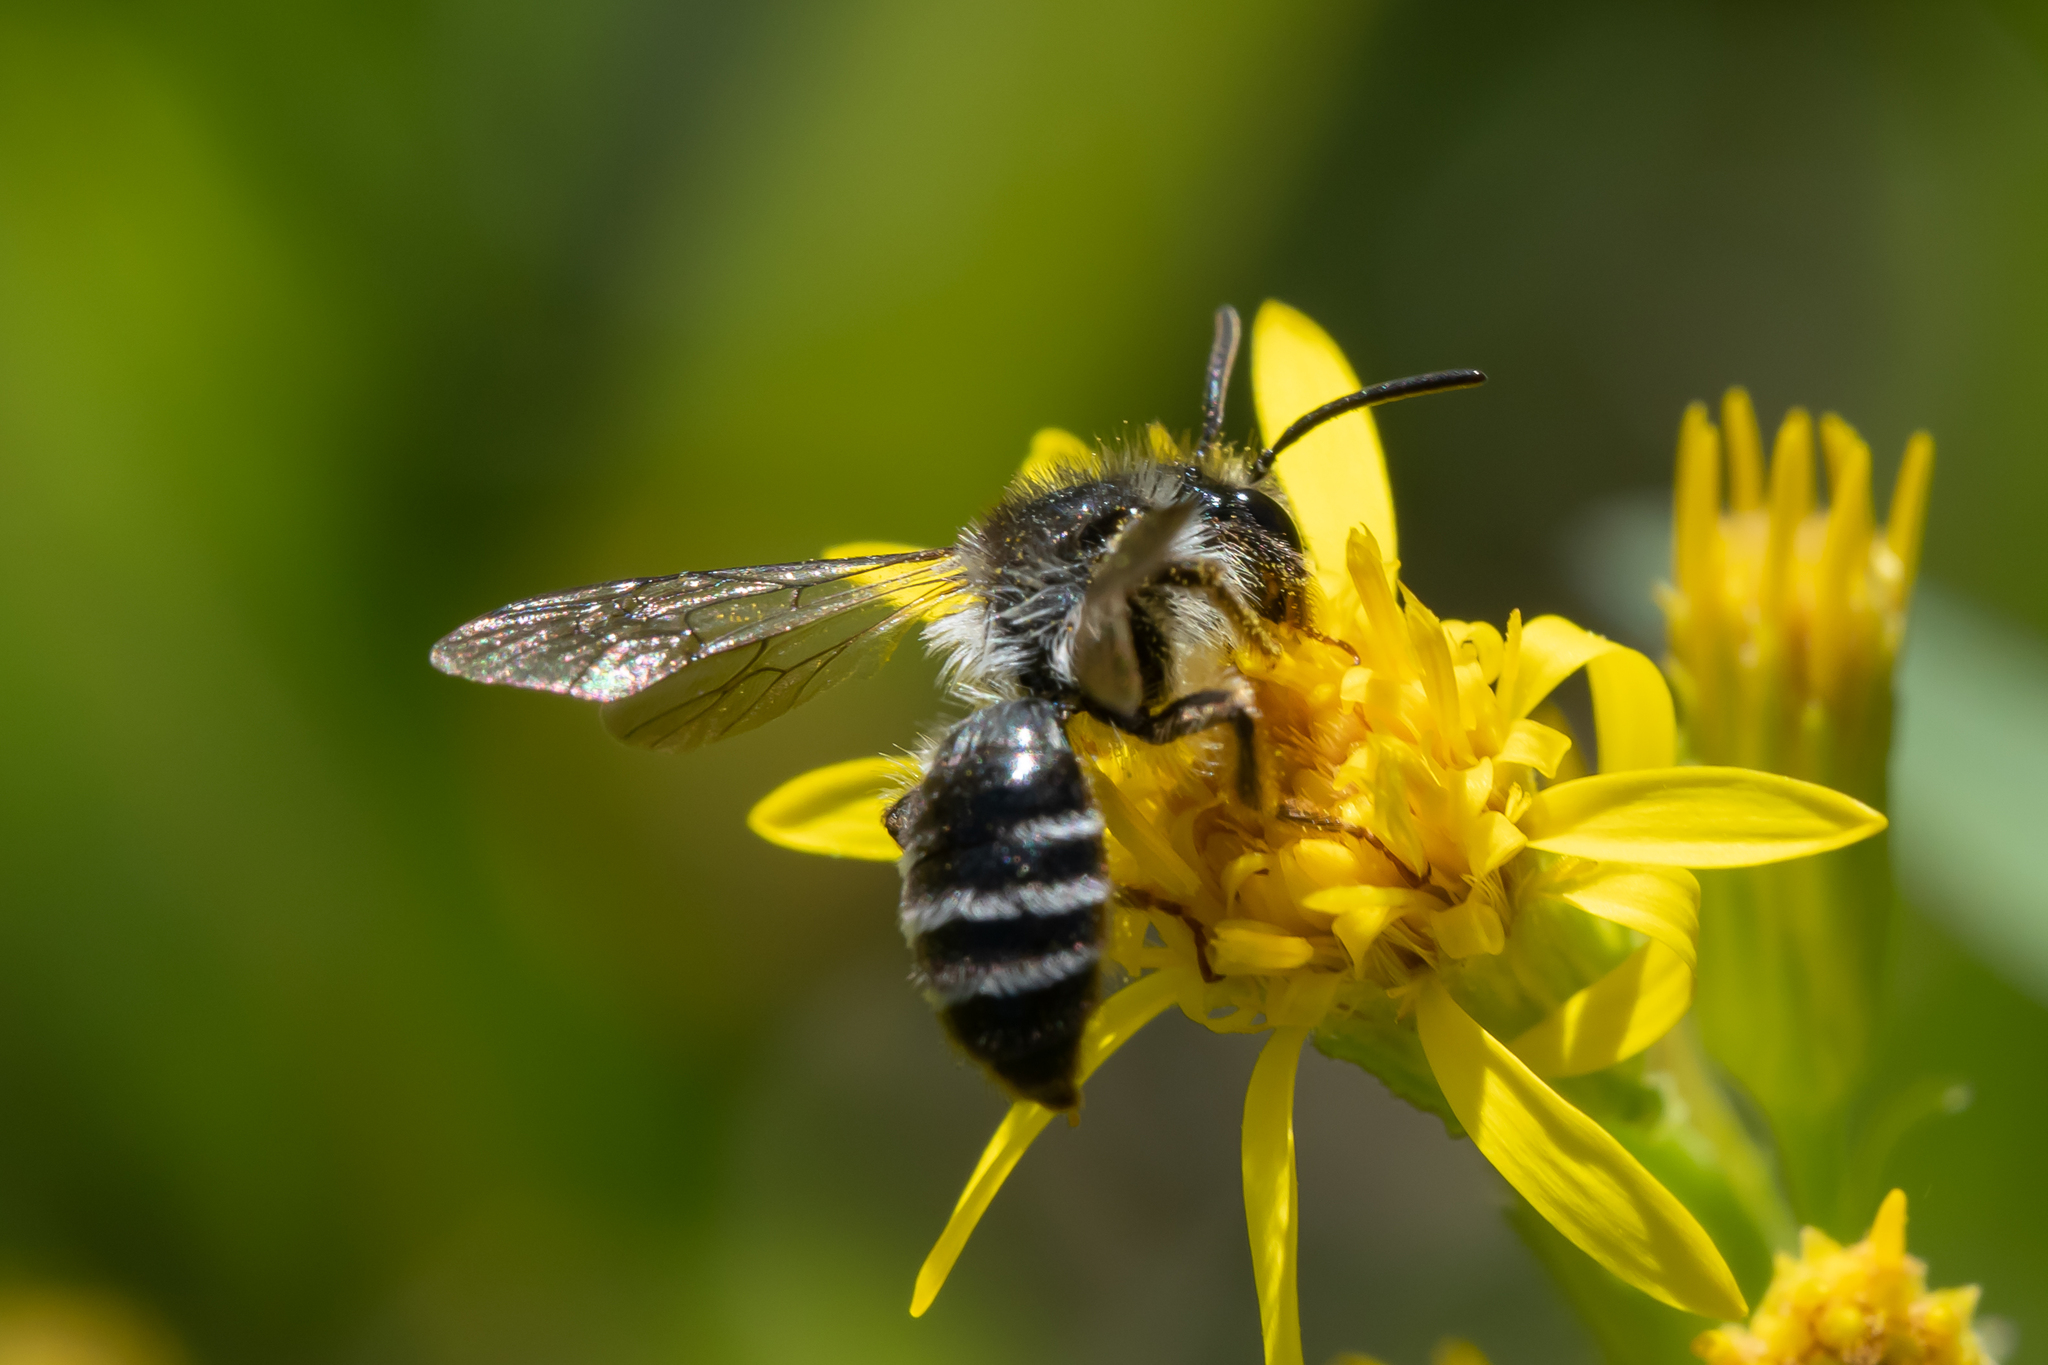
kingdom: Animalia
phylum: Arthropoda
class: Insecta
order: Hymenoptera
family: Andrenidae
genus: Andrena
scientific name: Andrena denticulata
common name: Grey-banded mining bee
